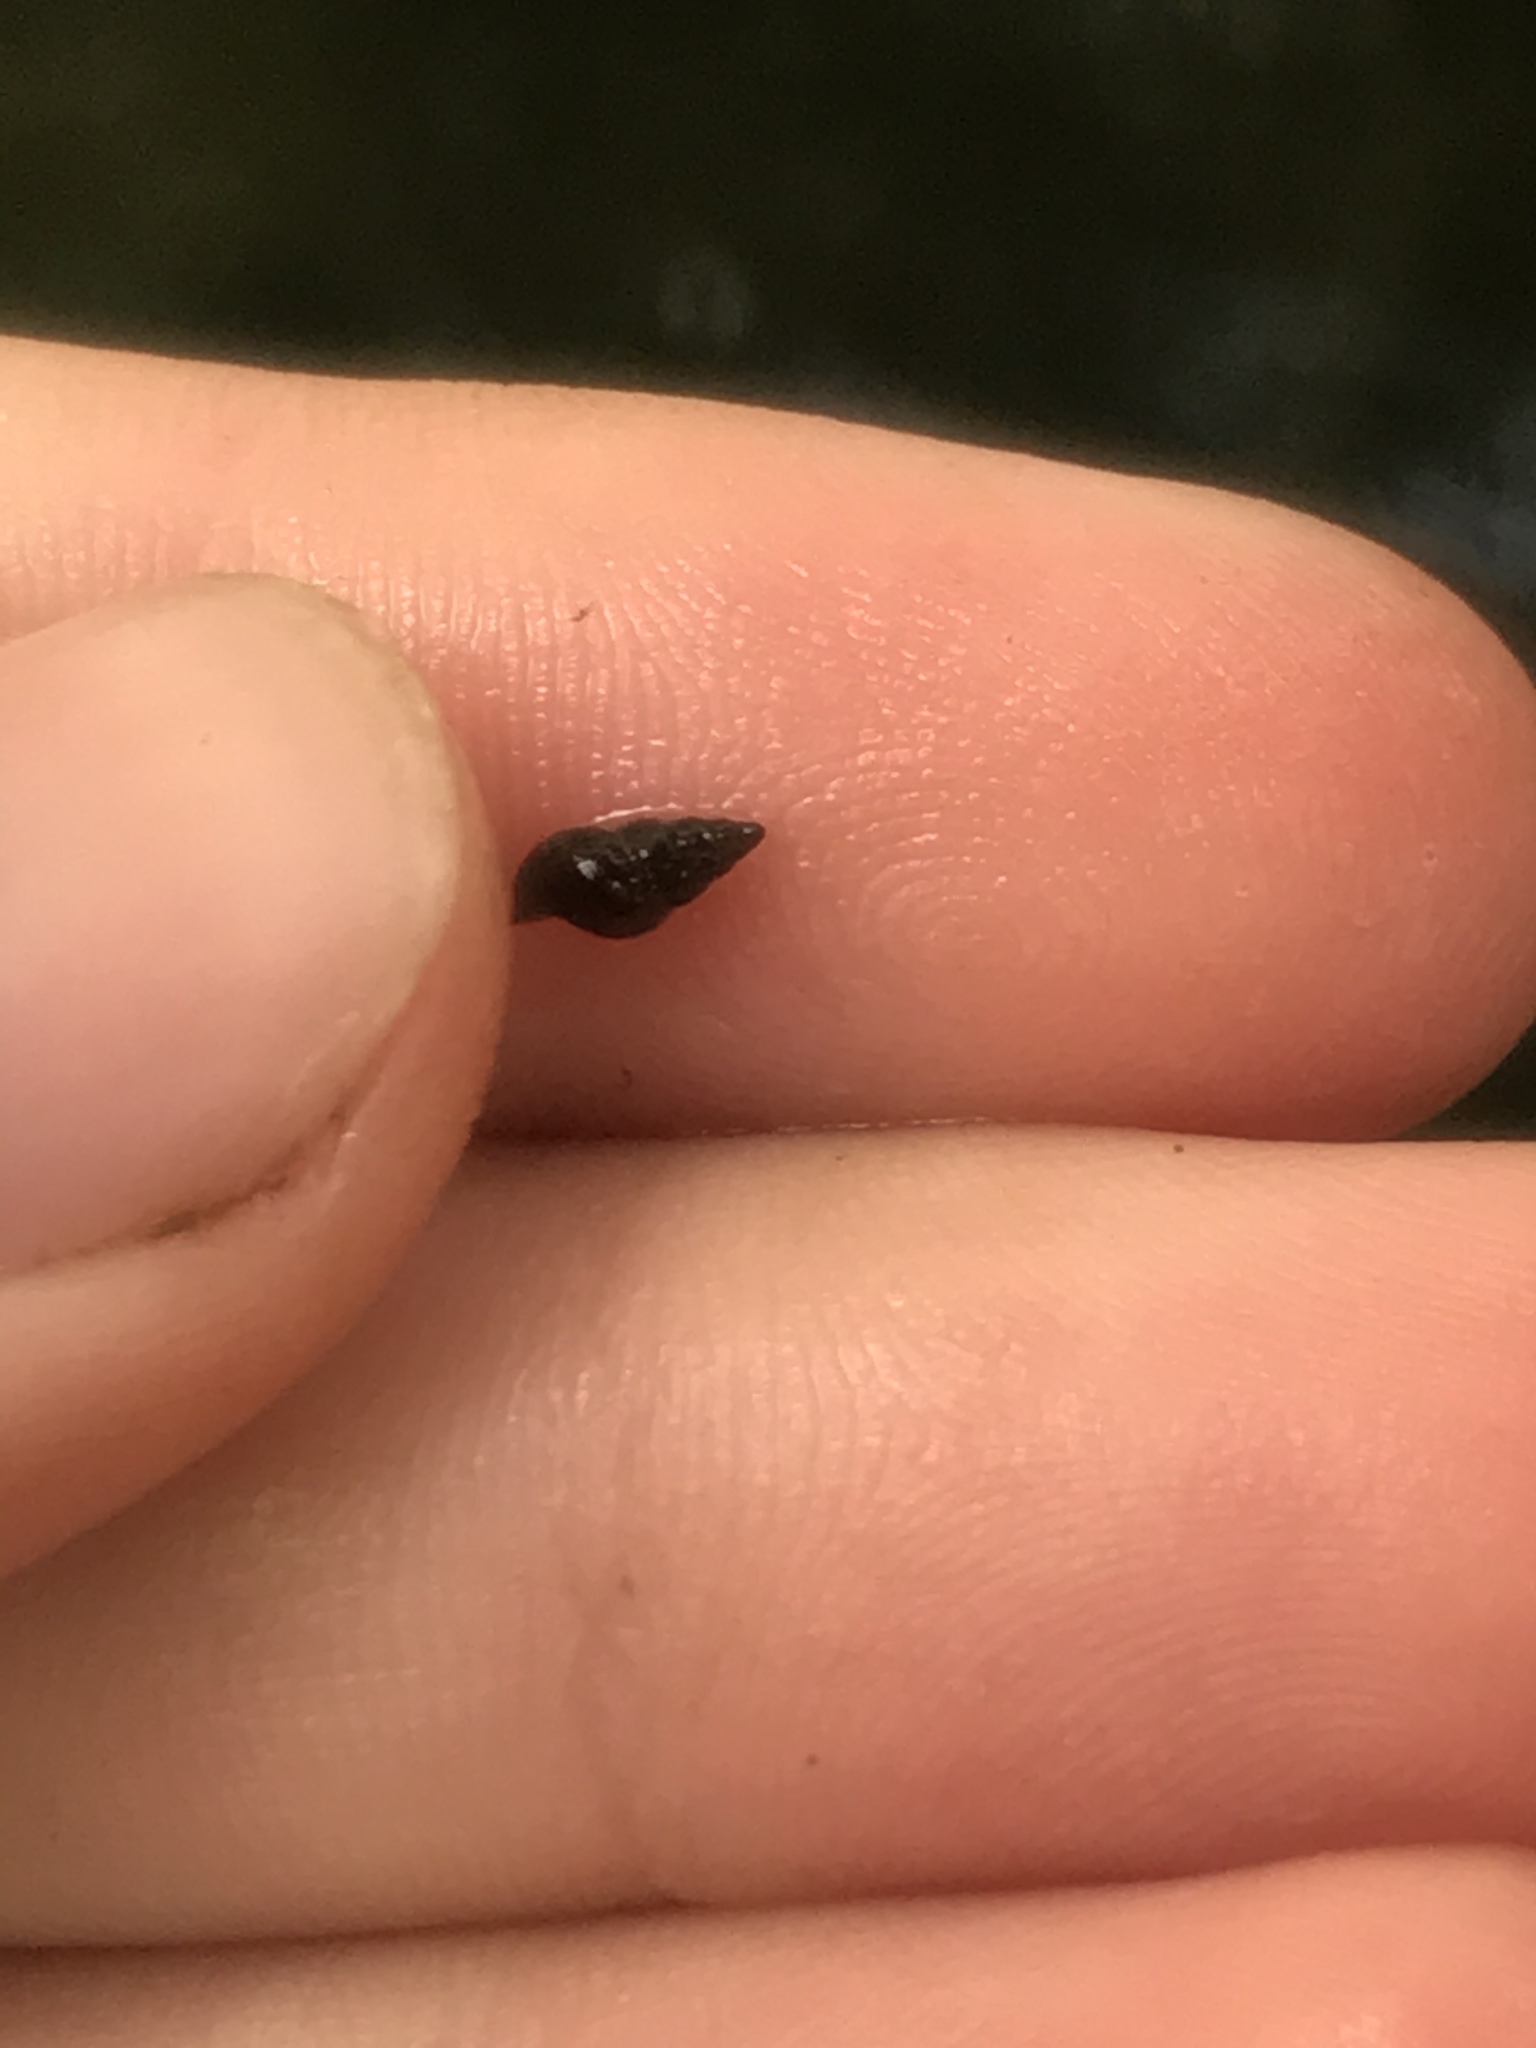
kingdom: Animalia
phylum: Mollusca
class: Gastropoda
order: Littorinimorpha
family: Tateidae
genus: Potamopyrgus
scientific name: Potamopyrgus antipodarum
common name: Jenkins' spire snail
